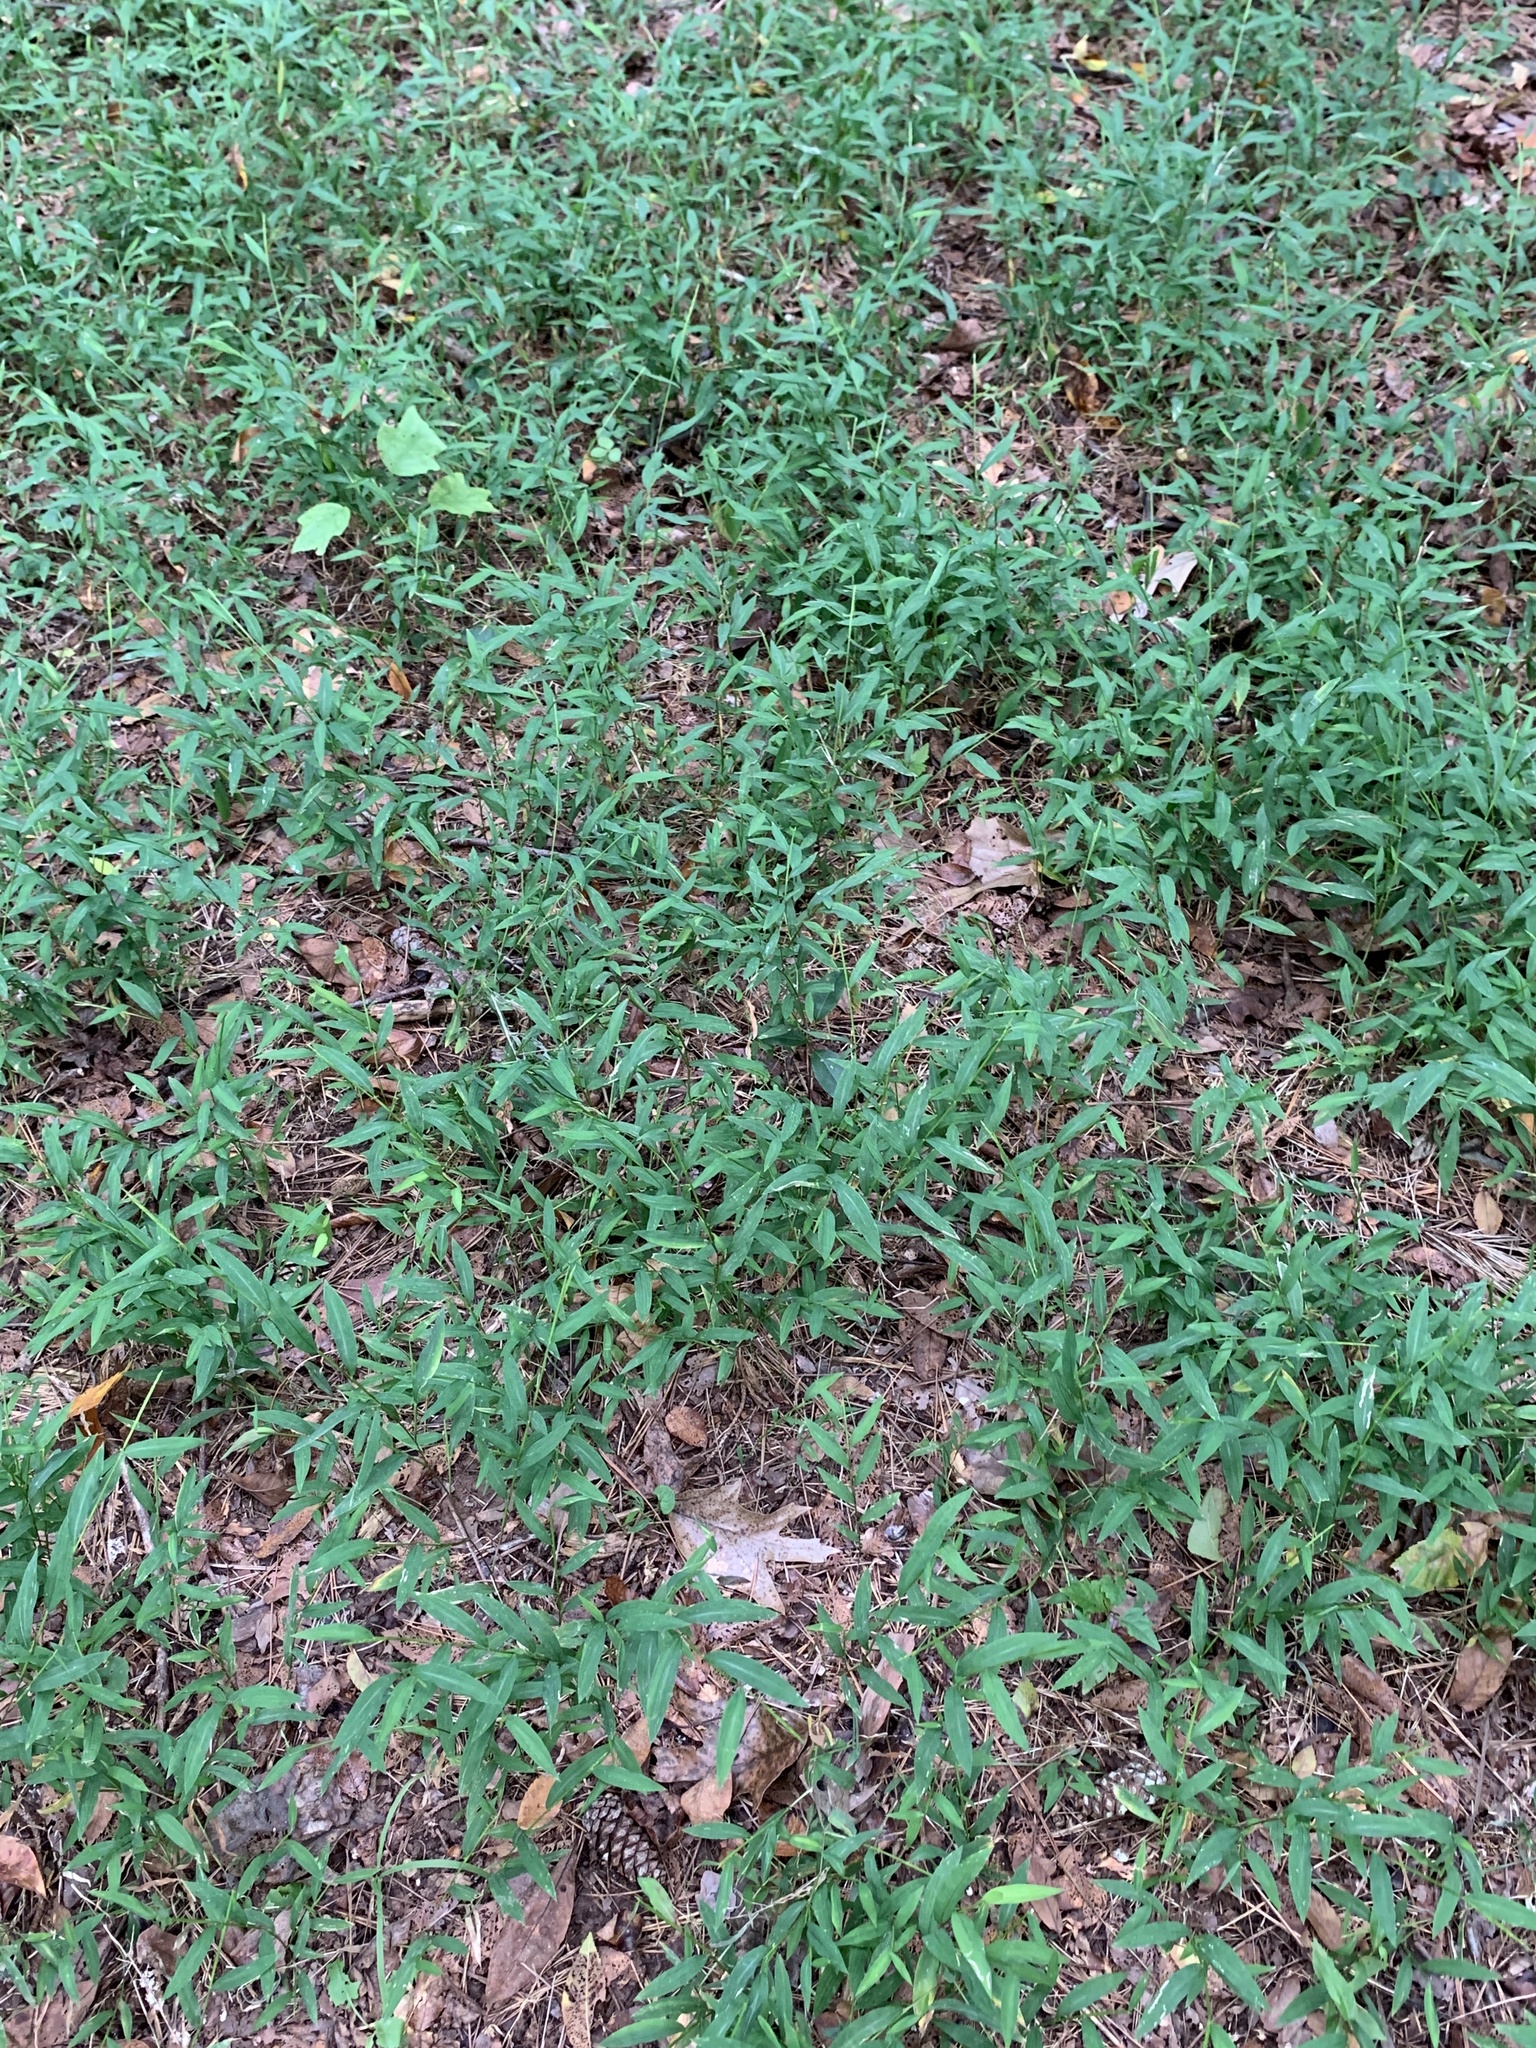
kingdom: Plantae
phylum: Tracheophyta
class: Liliopsida
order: Poales
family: Poaceae
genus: Microstegium
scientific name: Microstegium vimineum
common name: Japanese stiltgrass
